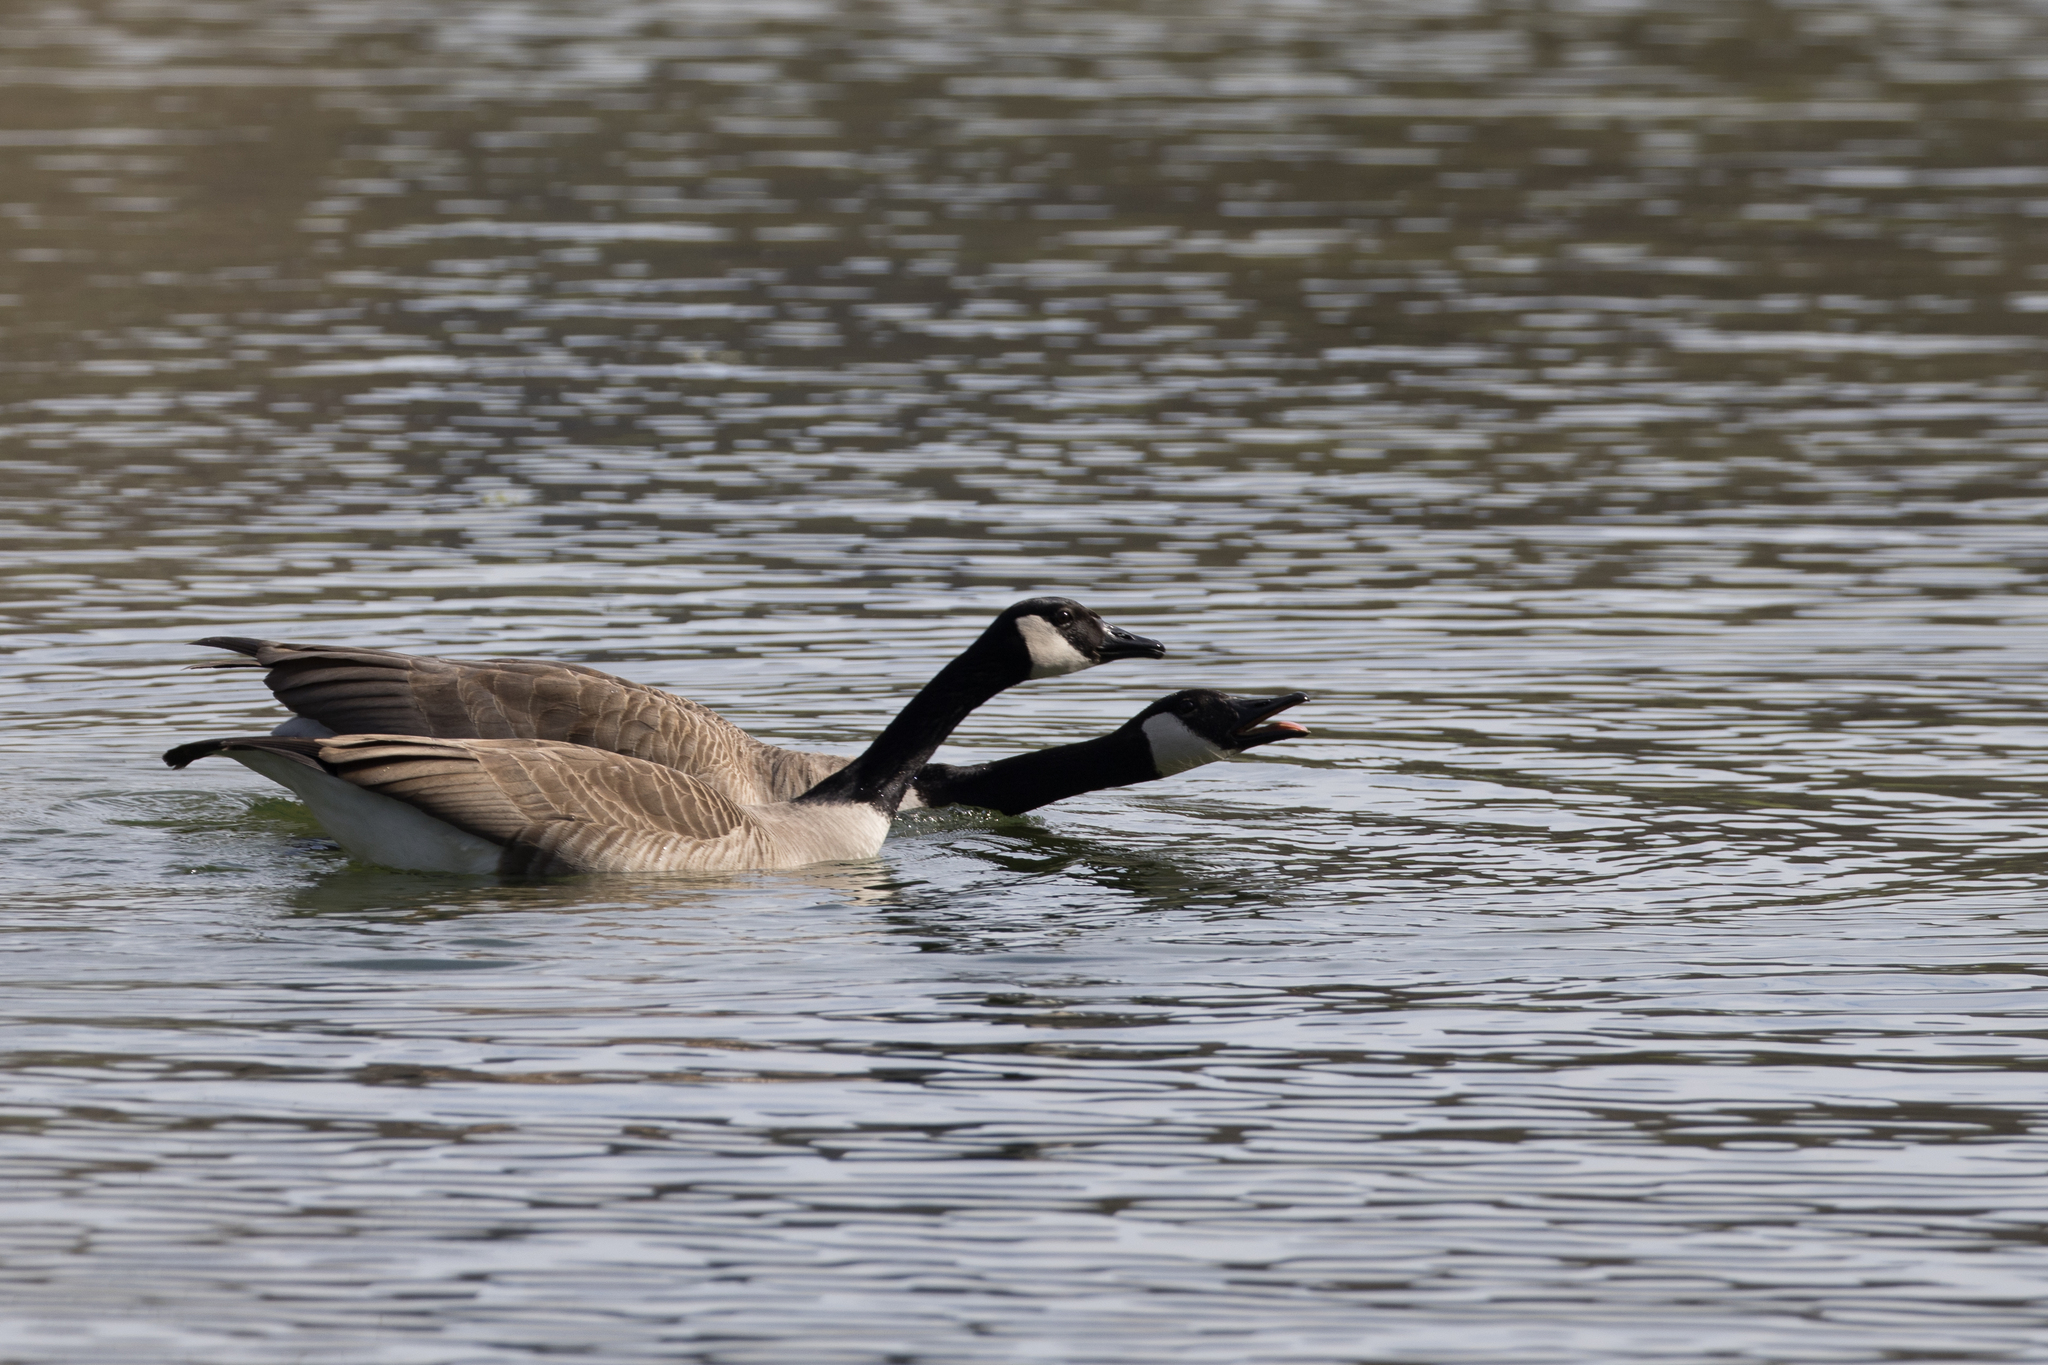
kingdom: Animalia
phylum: Chordata
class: Aves
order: Anseriformes
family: Anatidae
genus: Branta
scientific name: Branta canadensis
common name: Canada goose
